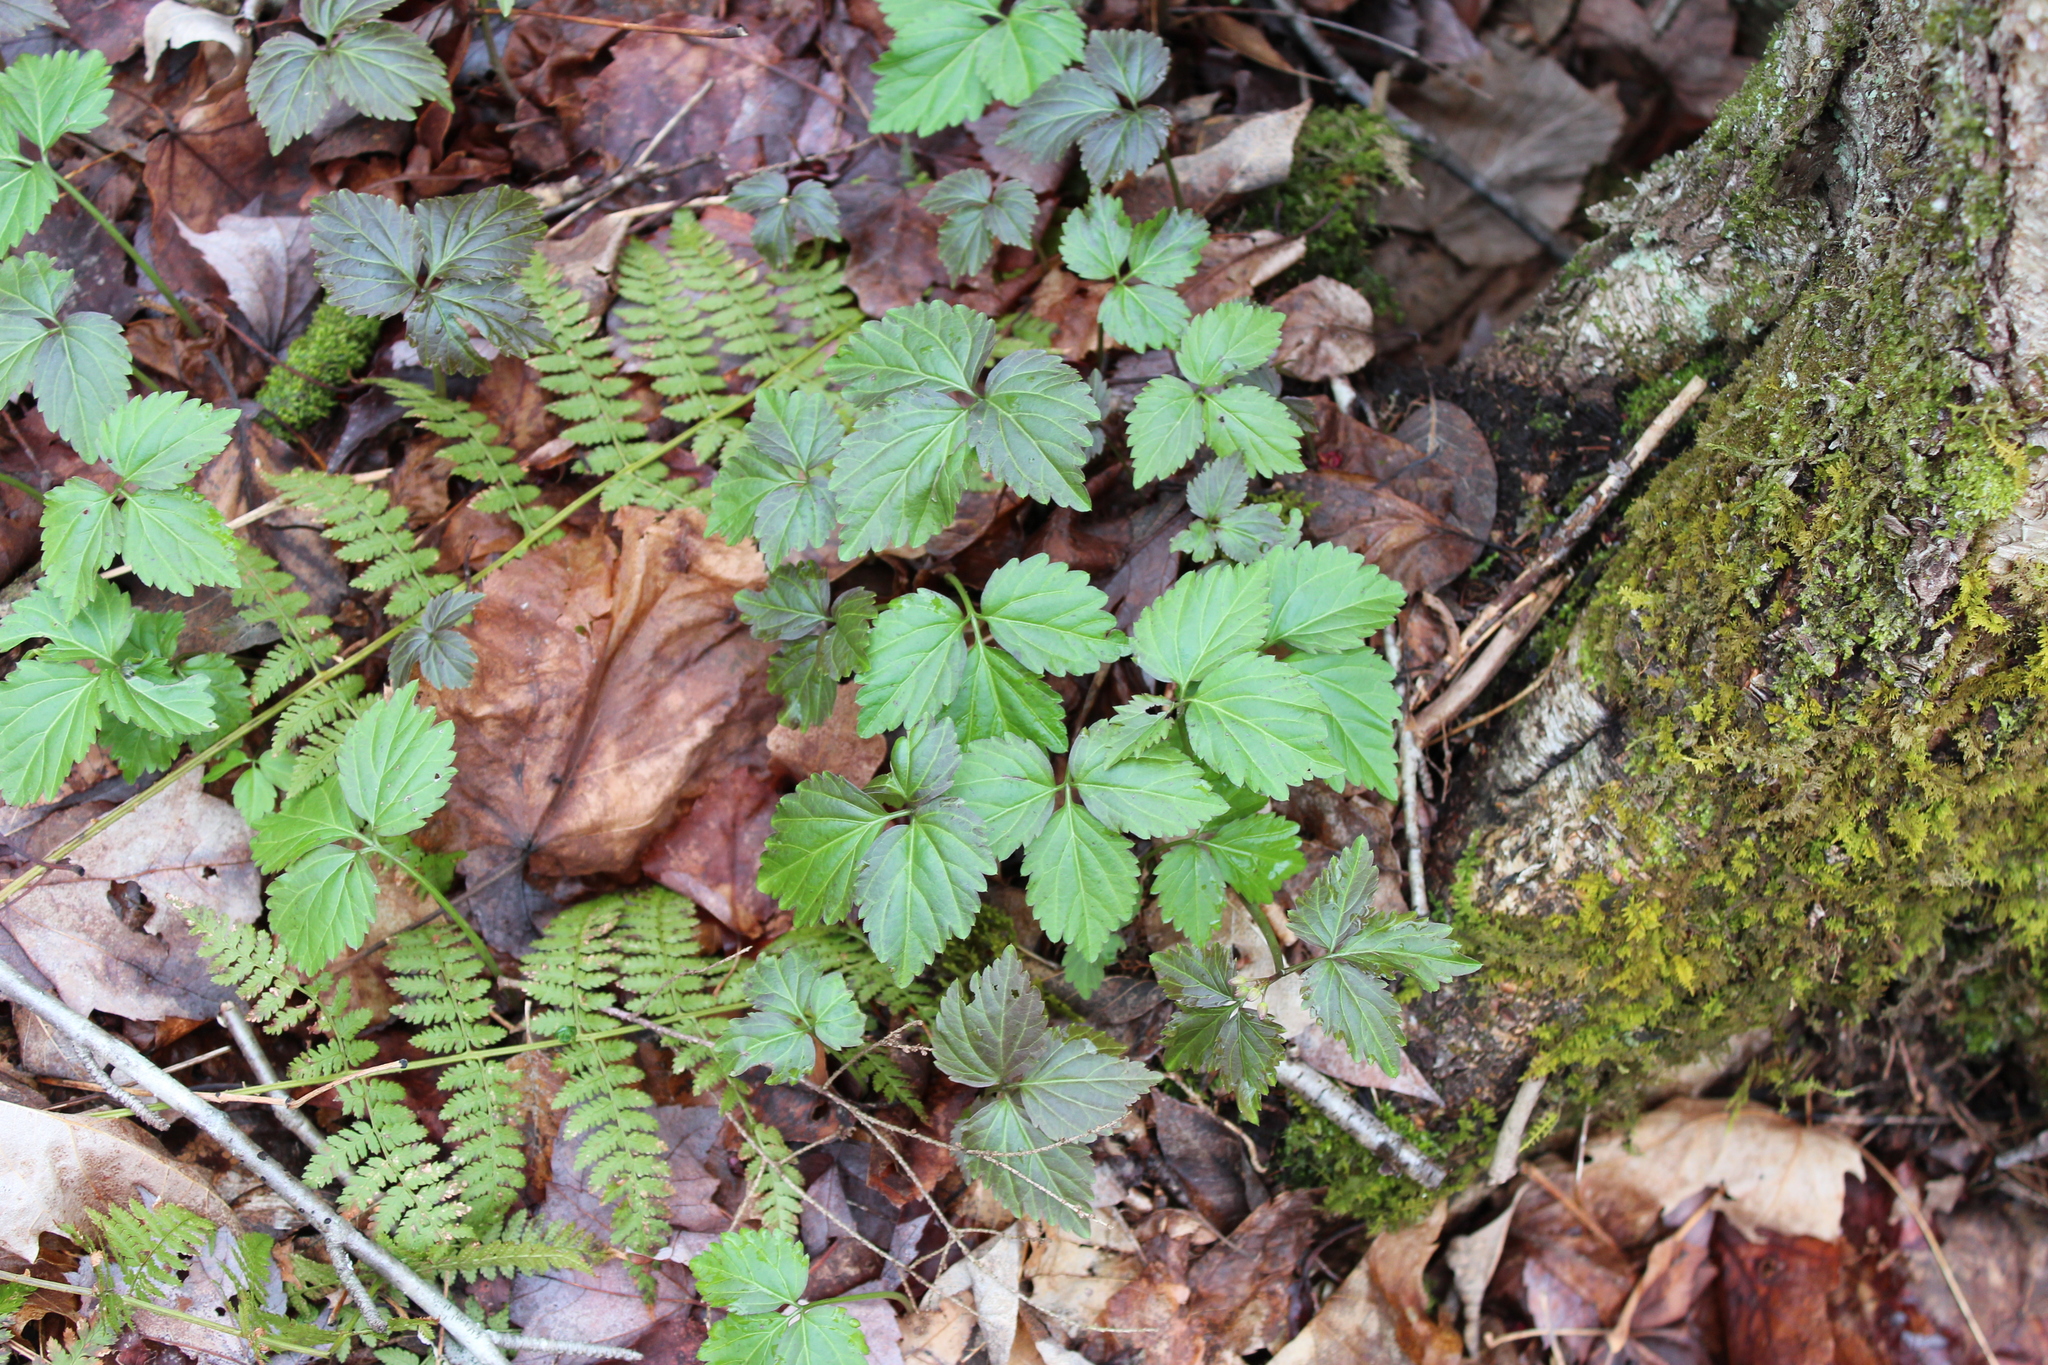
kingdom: Plantae
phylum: Tracheophyta
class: Magnoliopsida
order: Brassicales
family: Brassicaceae
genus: Cardamine
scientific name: Cardamine diphylla
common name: Broad-leaved toothwort
